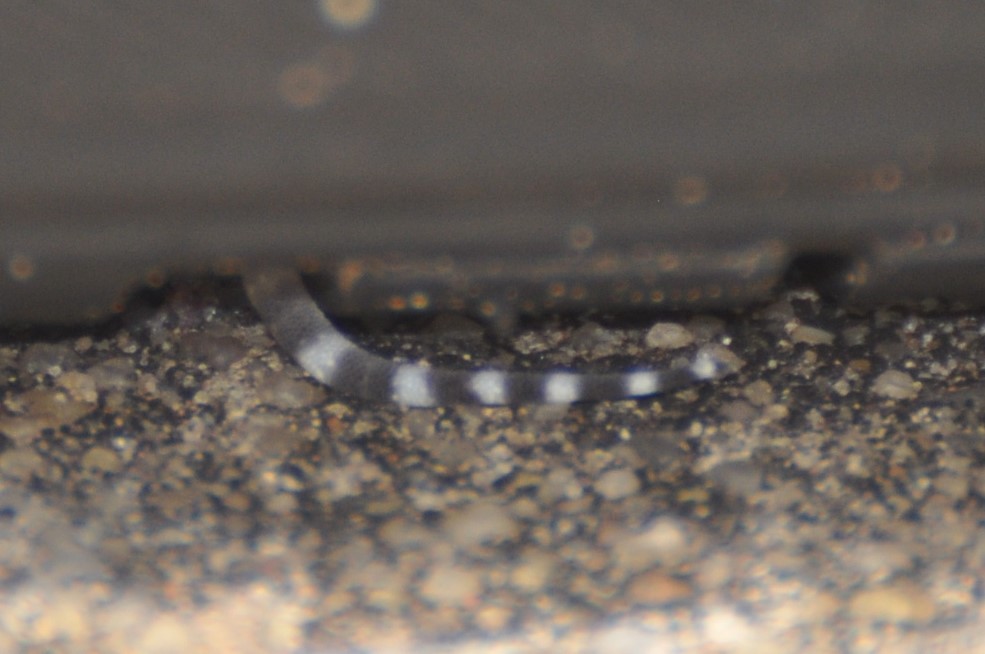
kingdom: Animalia
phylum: Chordata
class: Squamata
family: Gekkonidae
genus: Hemidactylus
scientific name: Hemidactylus turcicus
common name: Turkish gecko
